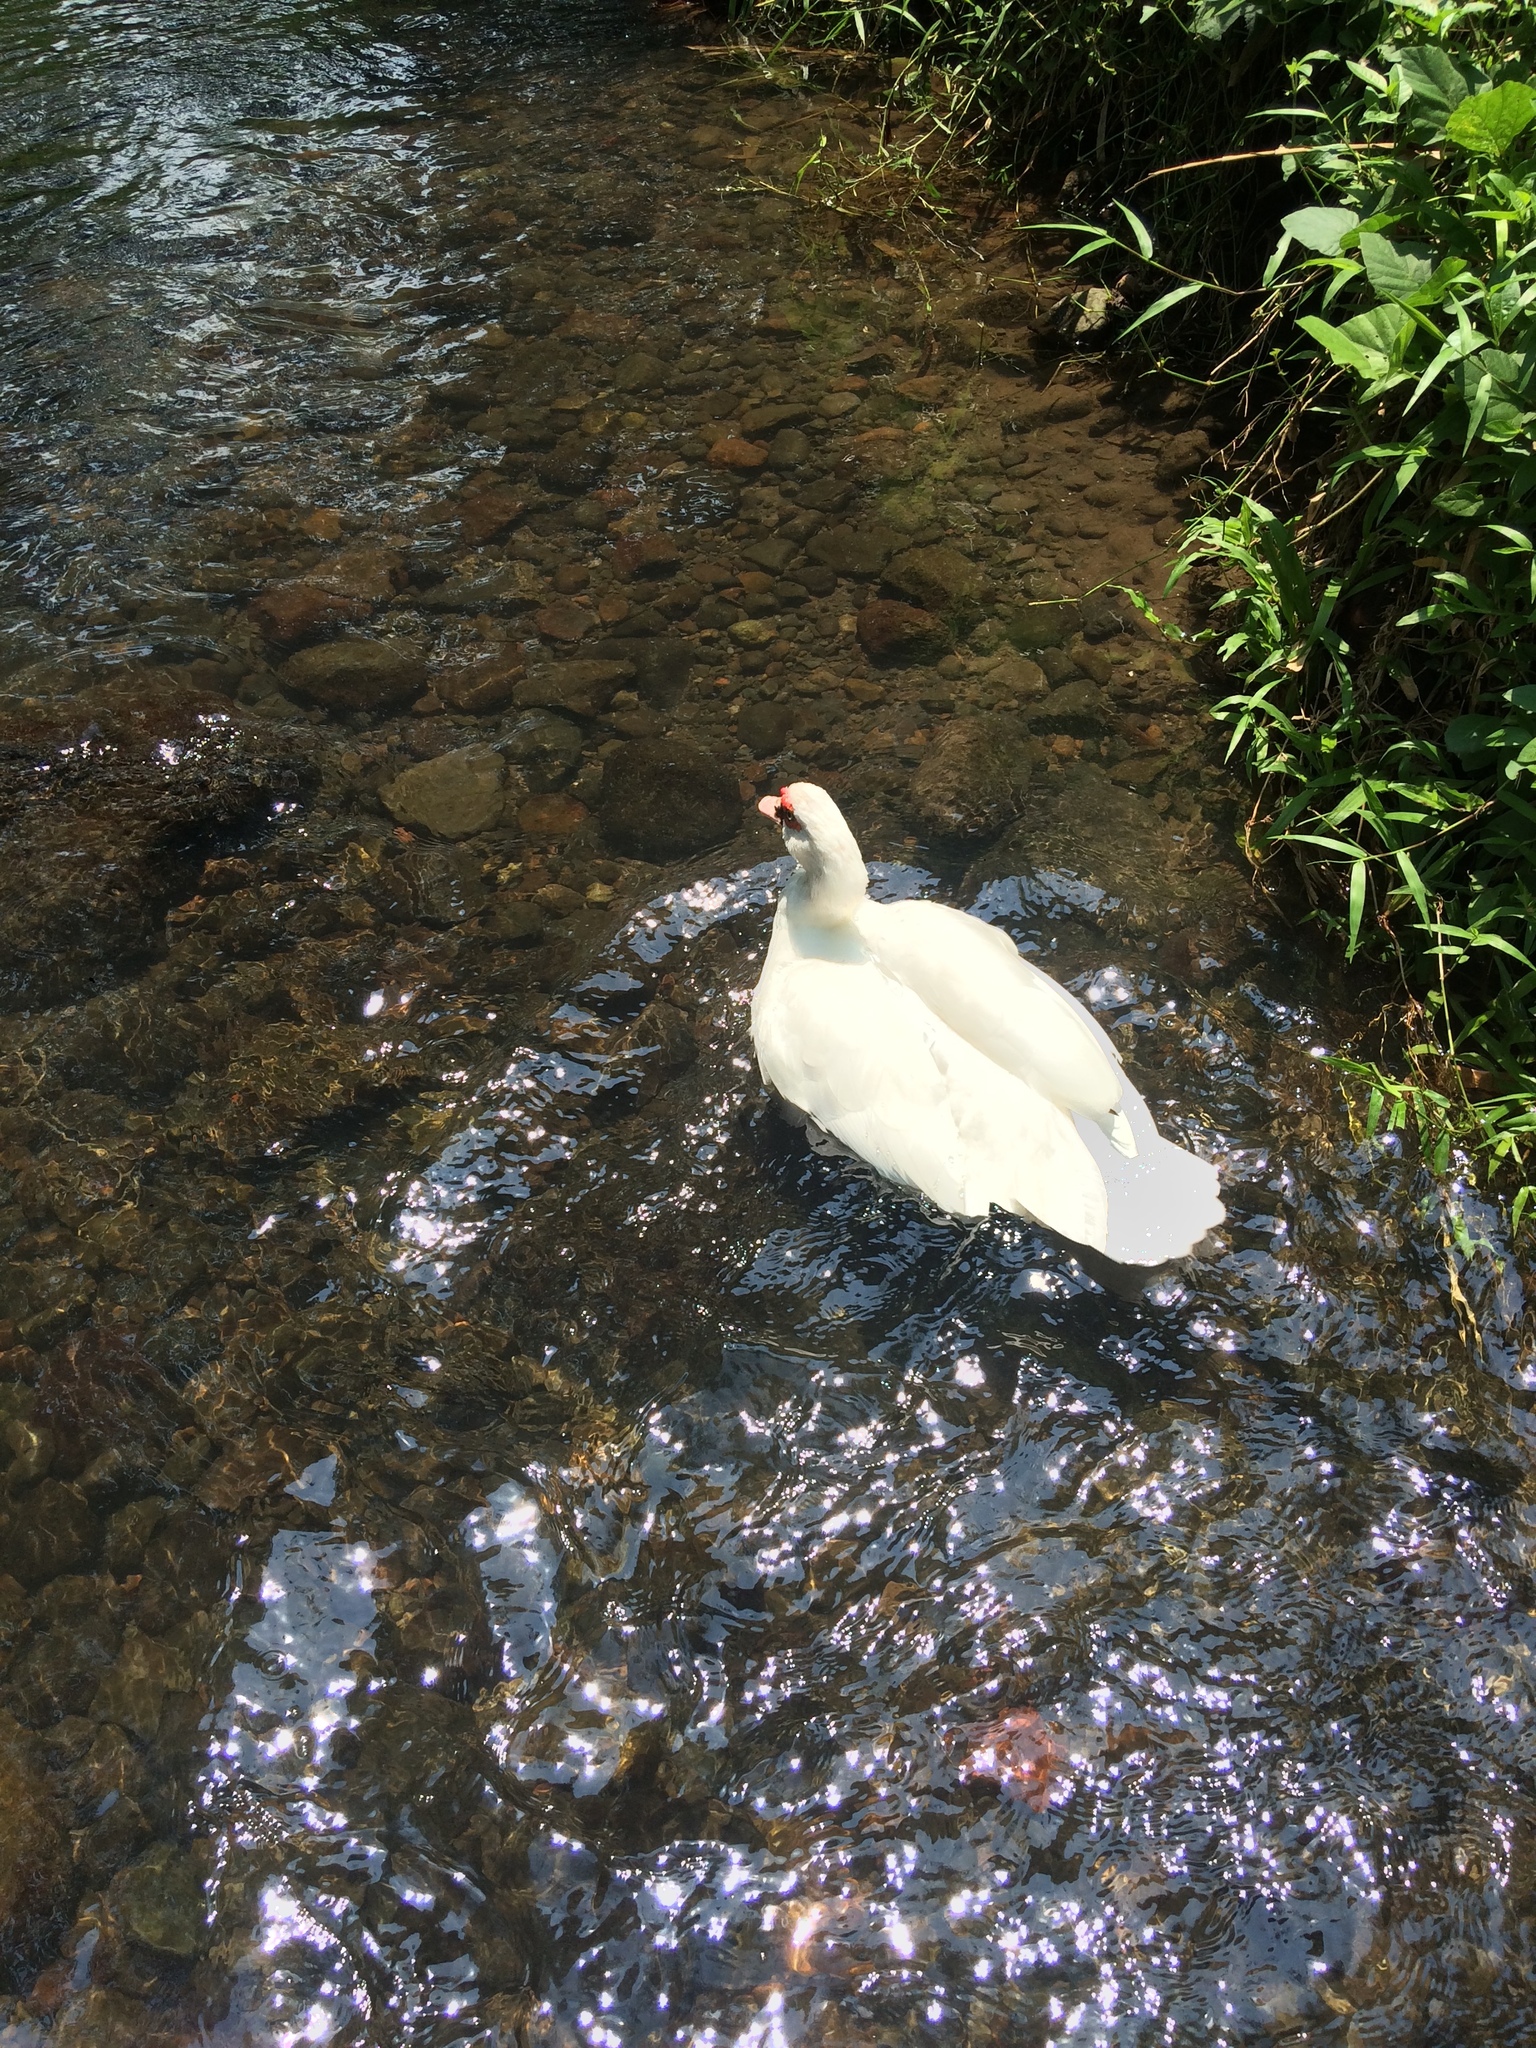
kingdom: Animalia
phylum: Chordata
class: Aves
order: Anseriformes
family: Anatidae
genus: Cairina
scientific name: Cairina moschata
